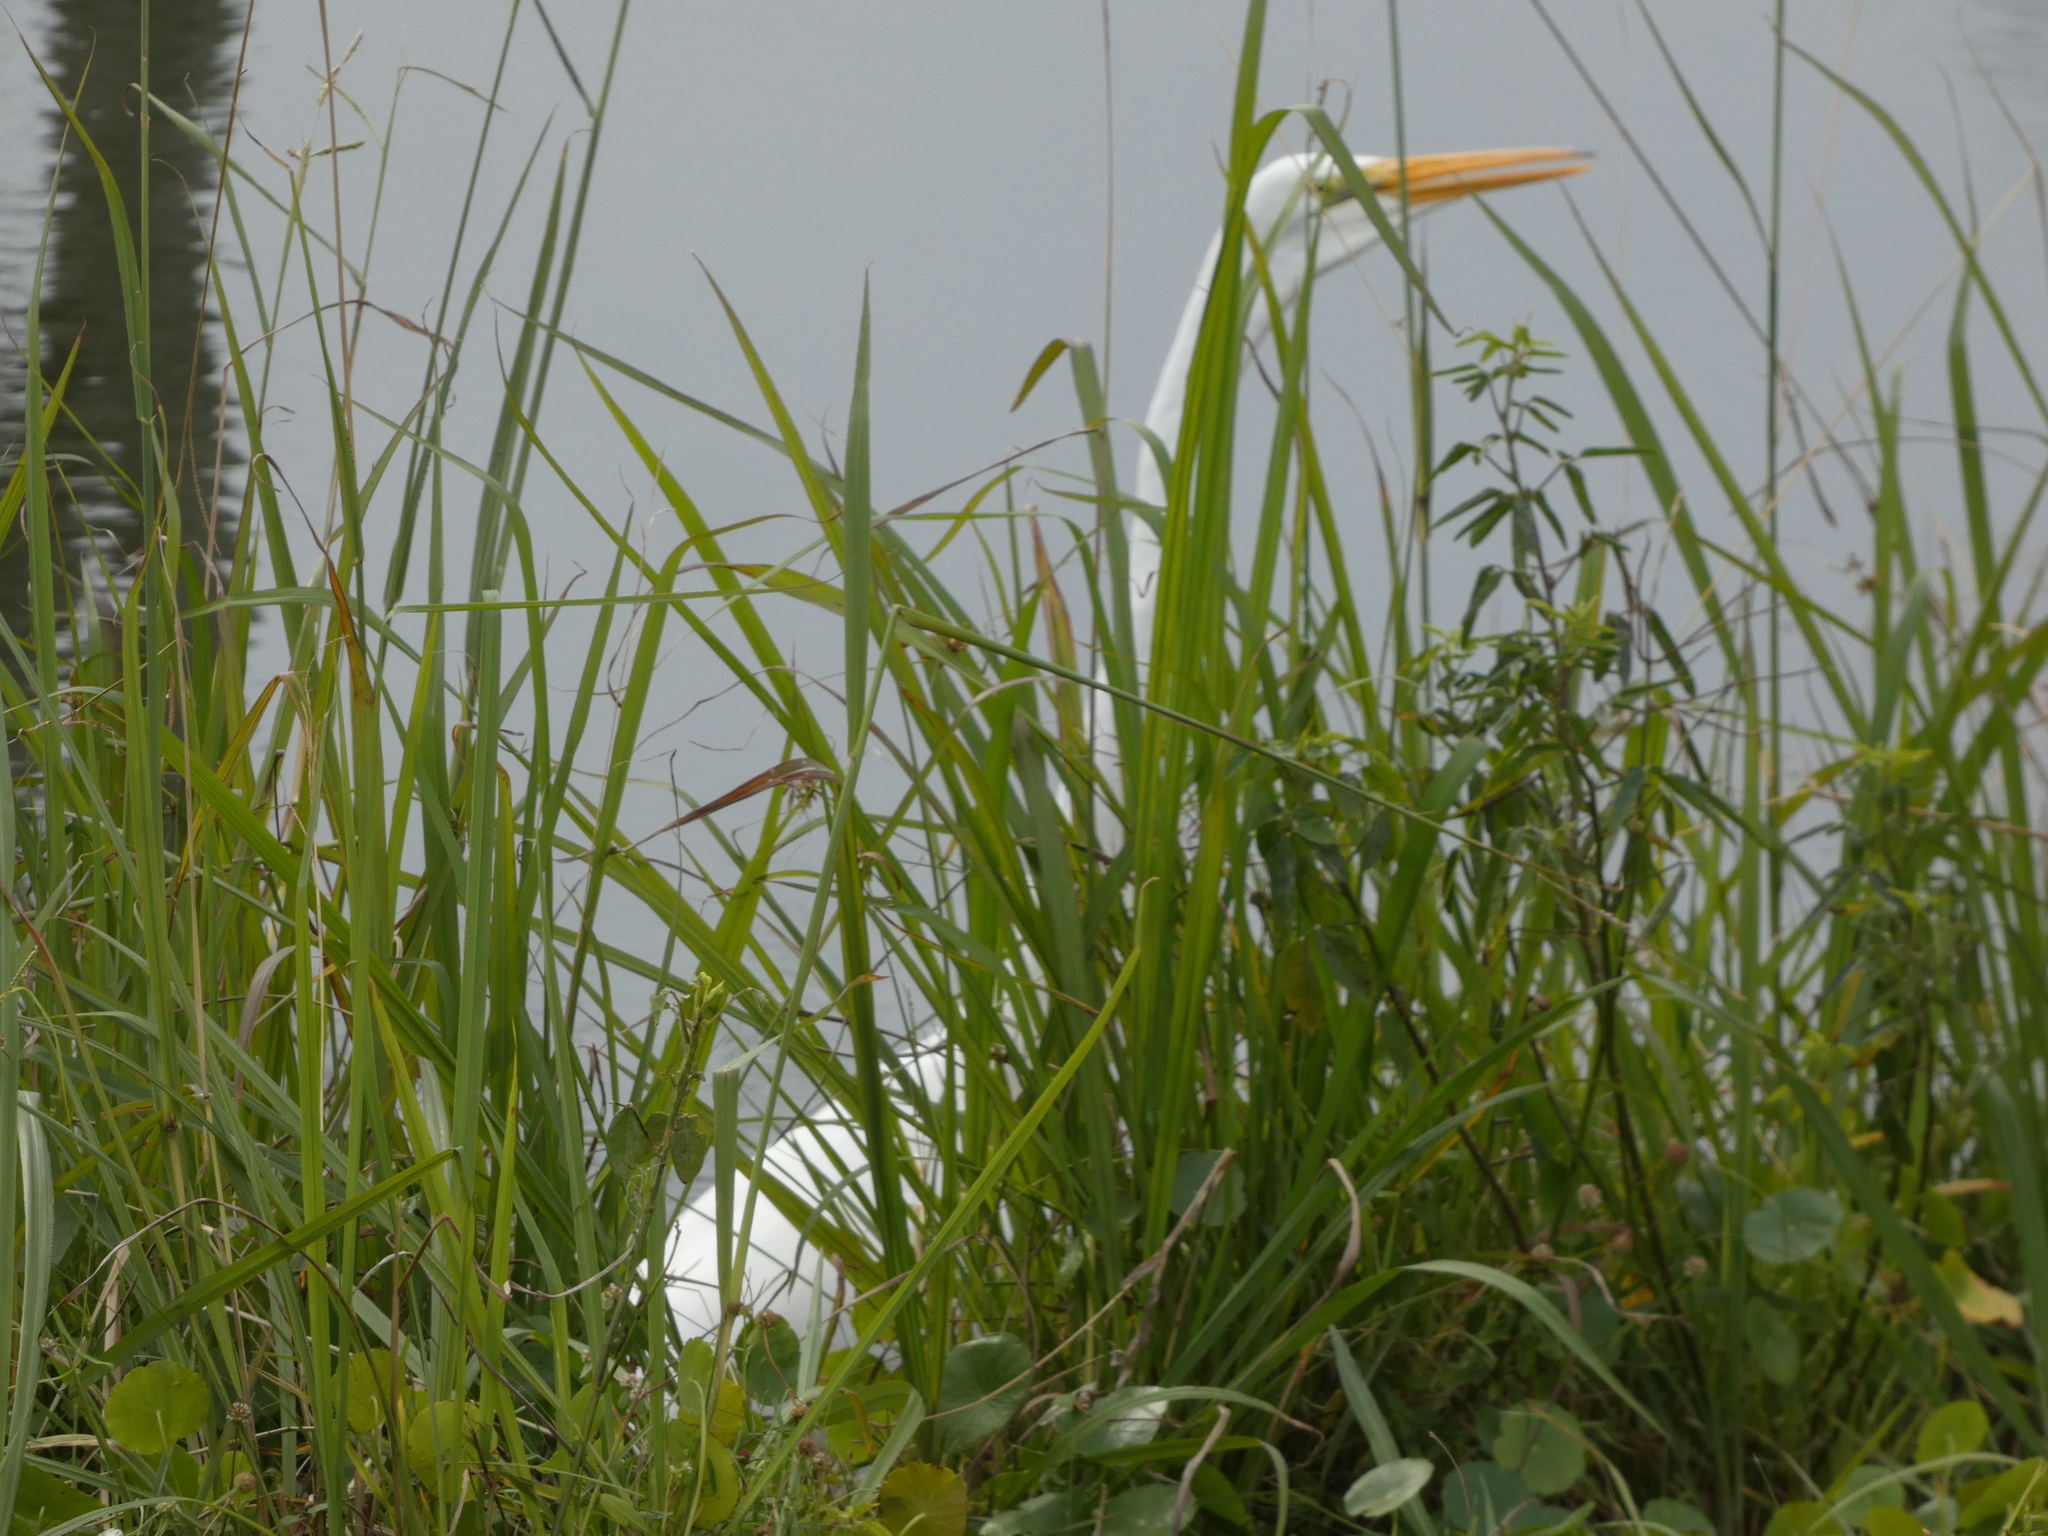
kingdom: Animalia
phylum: Chordata
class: Aves
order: Pelecaniformes
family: Ardeidae
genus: Ardea
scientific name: Ardea alba
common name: Great egret
